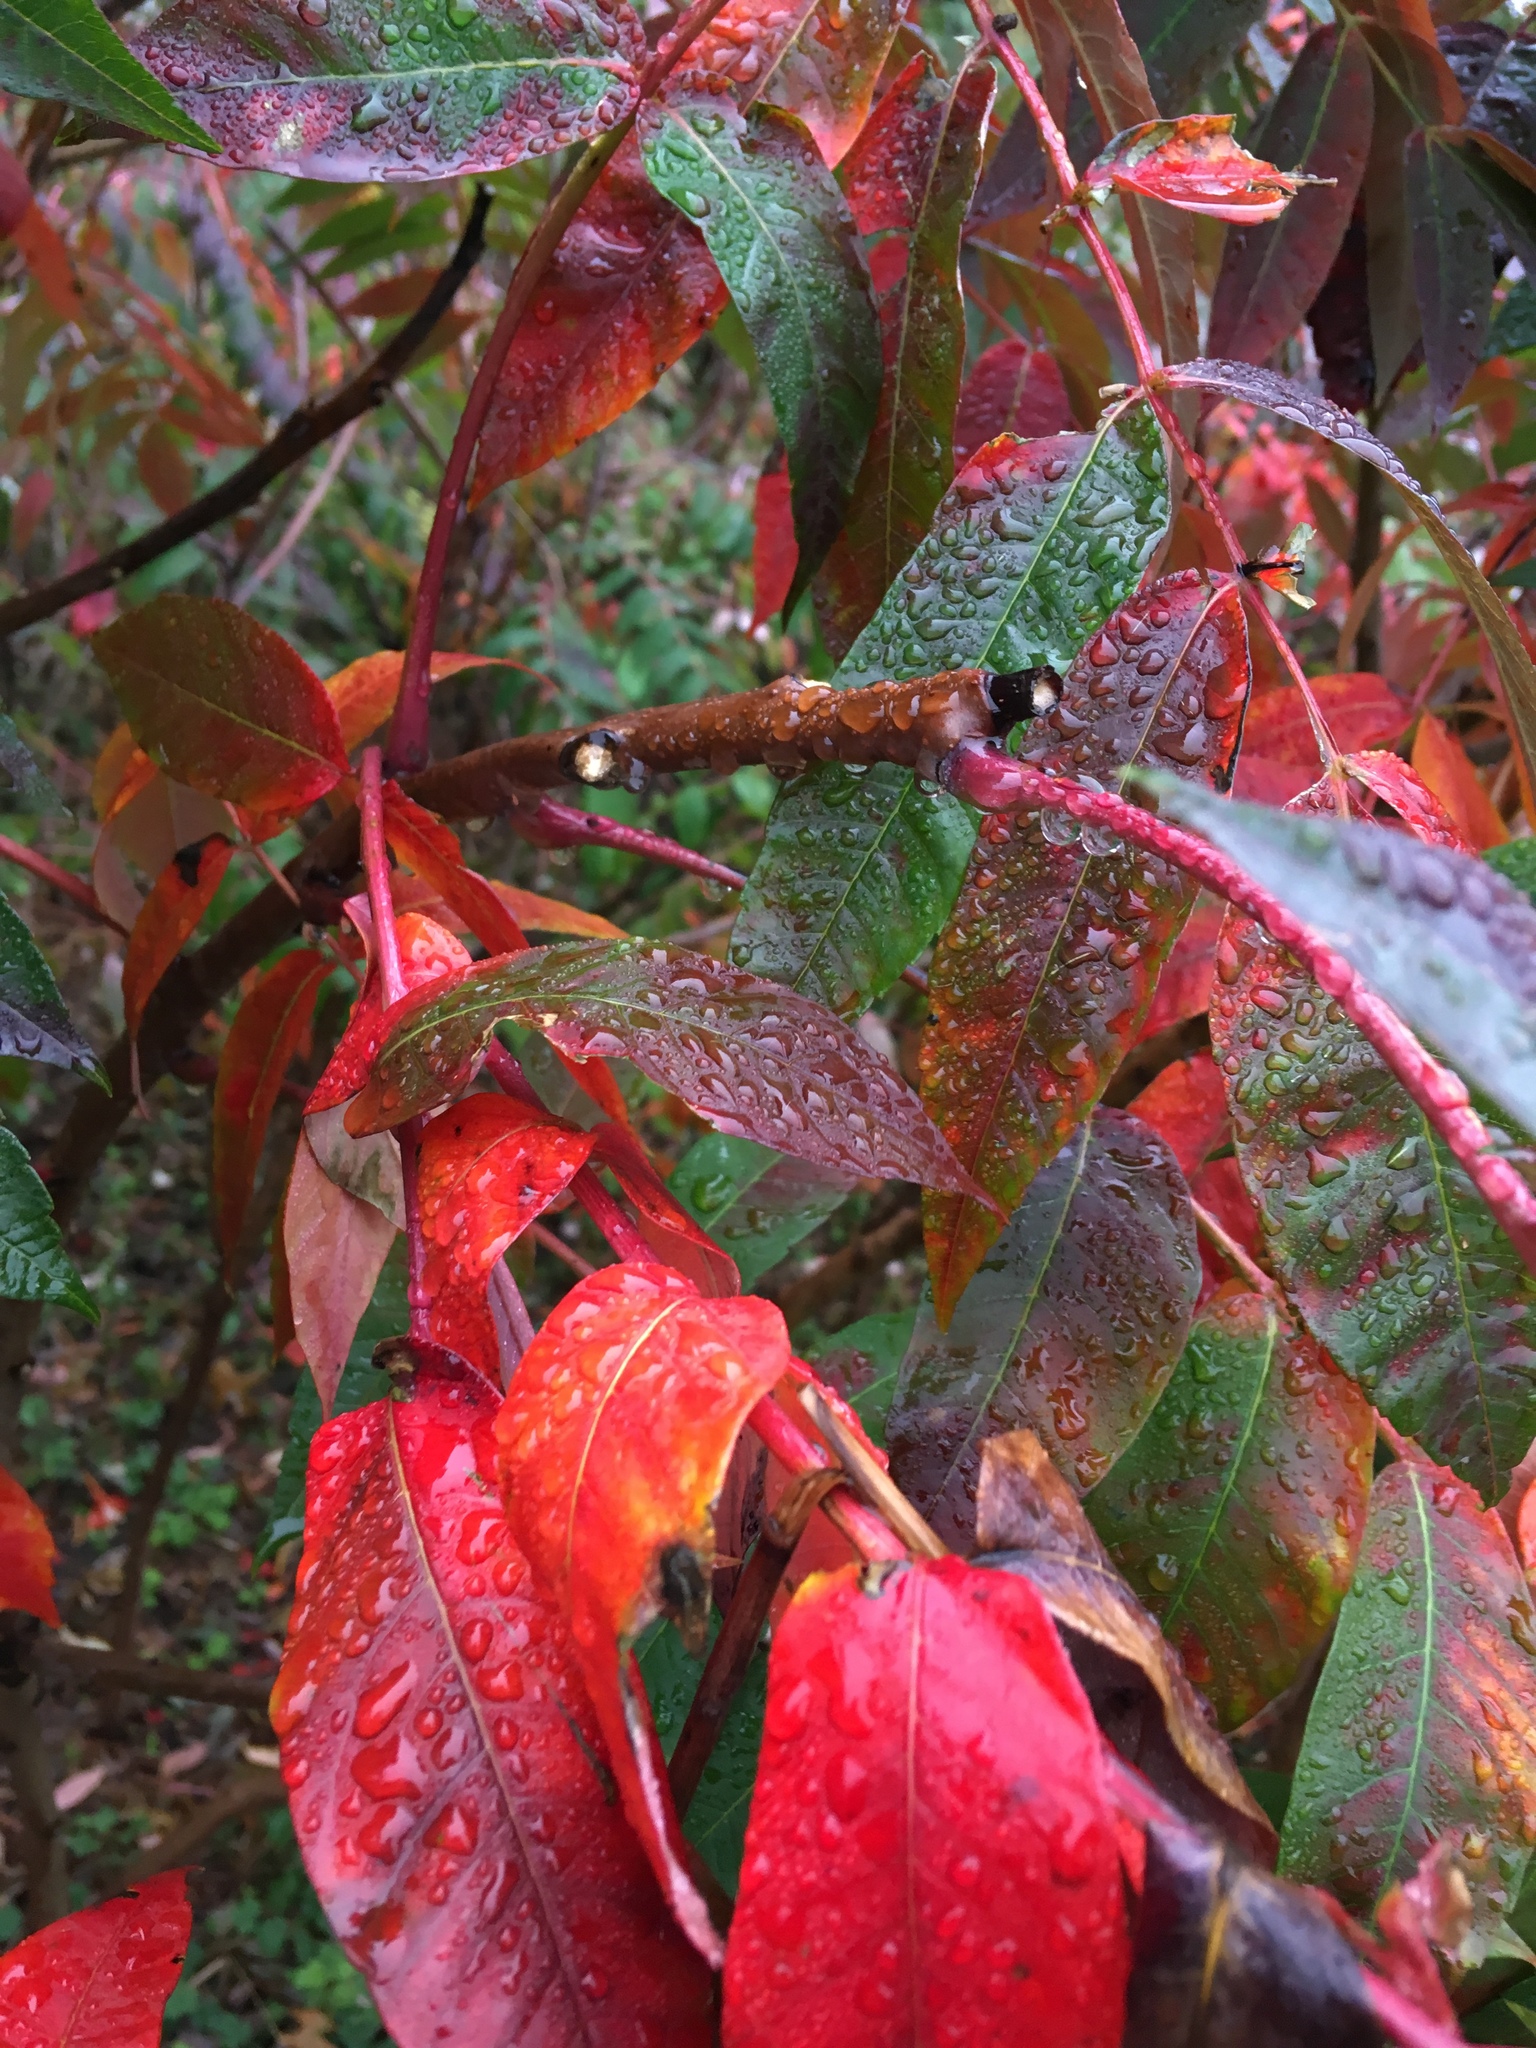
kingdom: Plantae
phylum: Tracheophyta
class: Magnoliopsida
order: Sapindales
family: Anacardiaceae
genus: Rhus
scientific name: Rhus glabra
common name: Scarlet sumac
